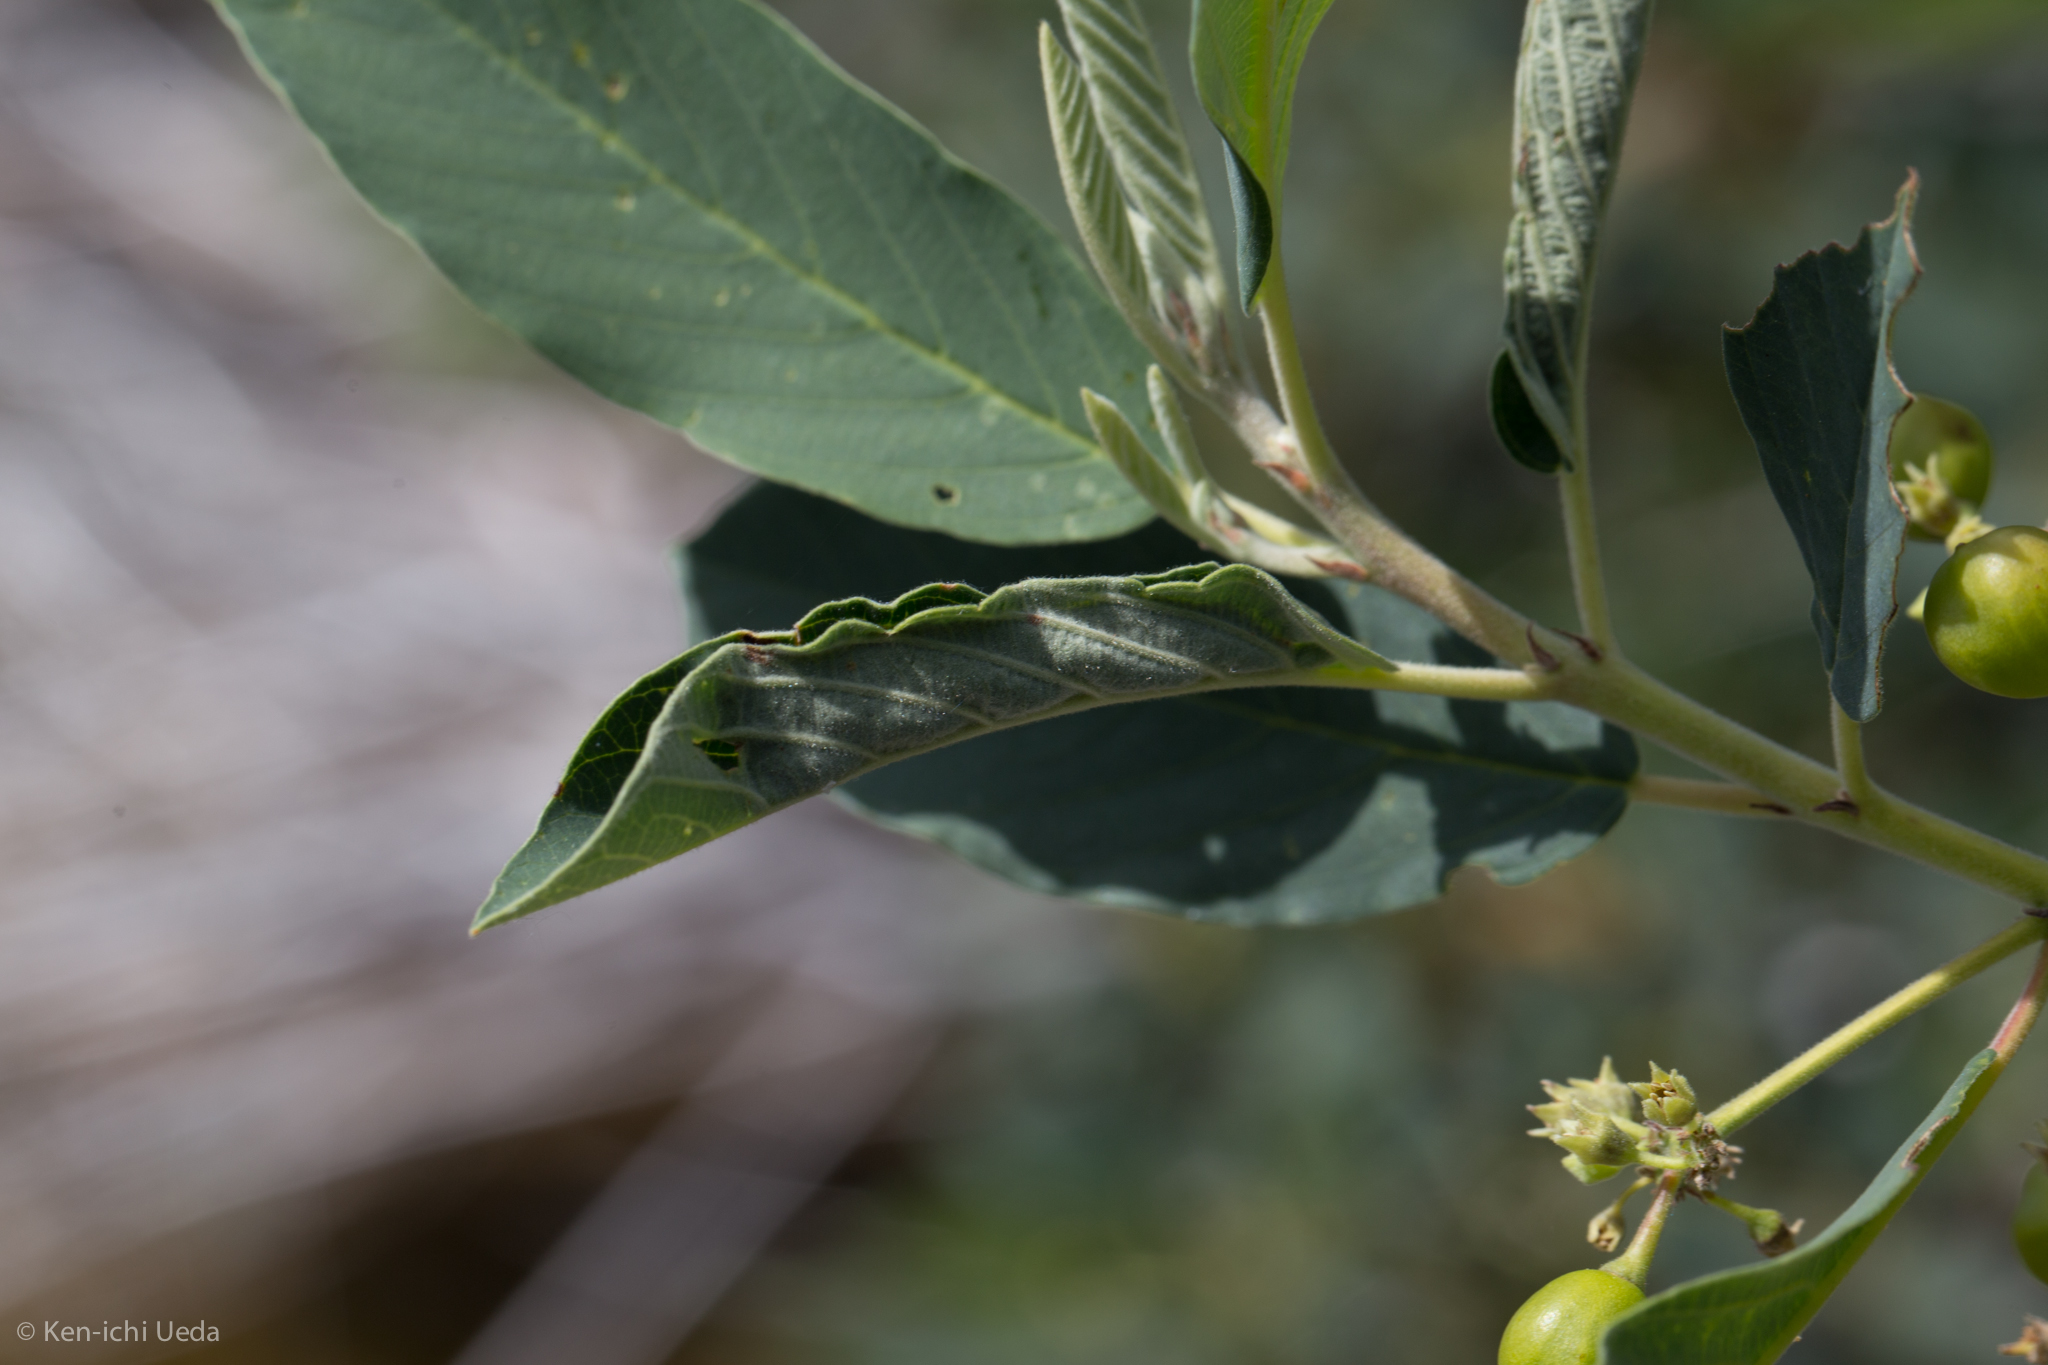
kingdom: Animalia
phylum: Arthropoda
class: Insecta
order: Lepidoptera
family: Cosmopterigidae
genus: Sorhagenia
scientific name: Sorhagenia nimbosus
